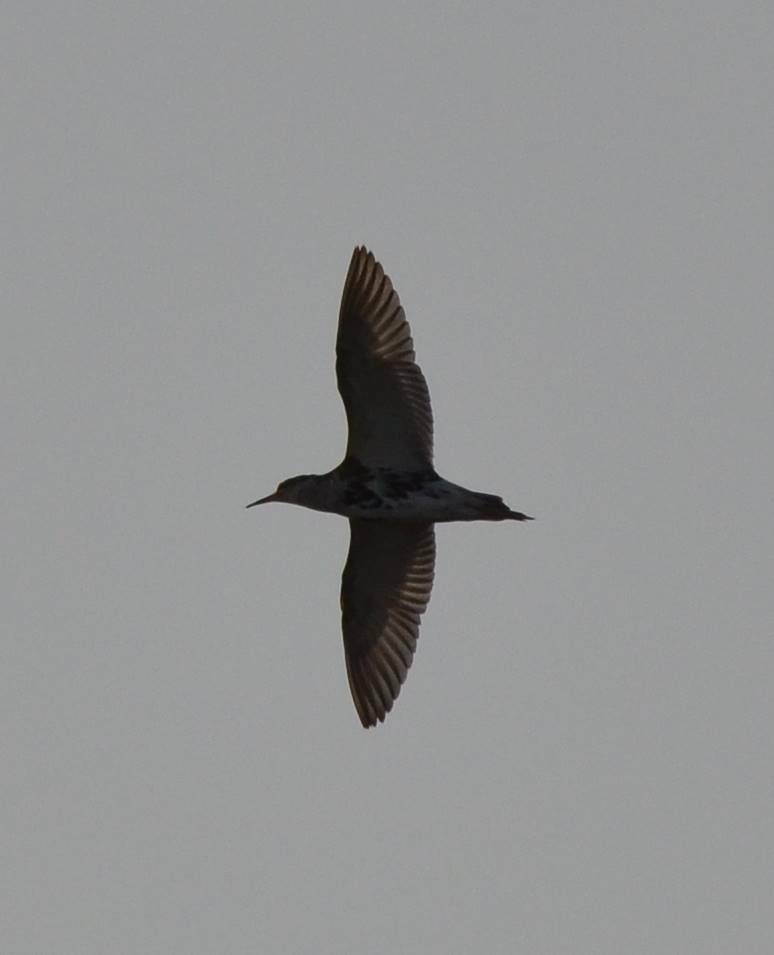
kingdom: Animalia
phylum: Chordata
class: Aves
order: Charadriiformes
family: Scolopacidae
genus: Calidris
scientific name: Calidris pugnax
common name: Ruff
